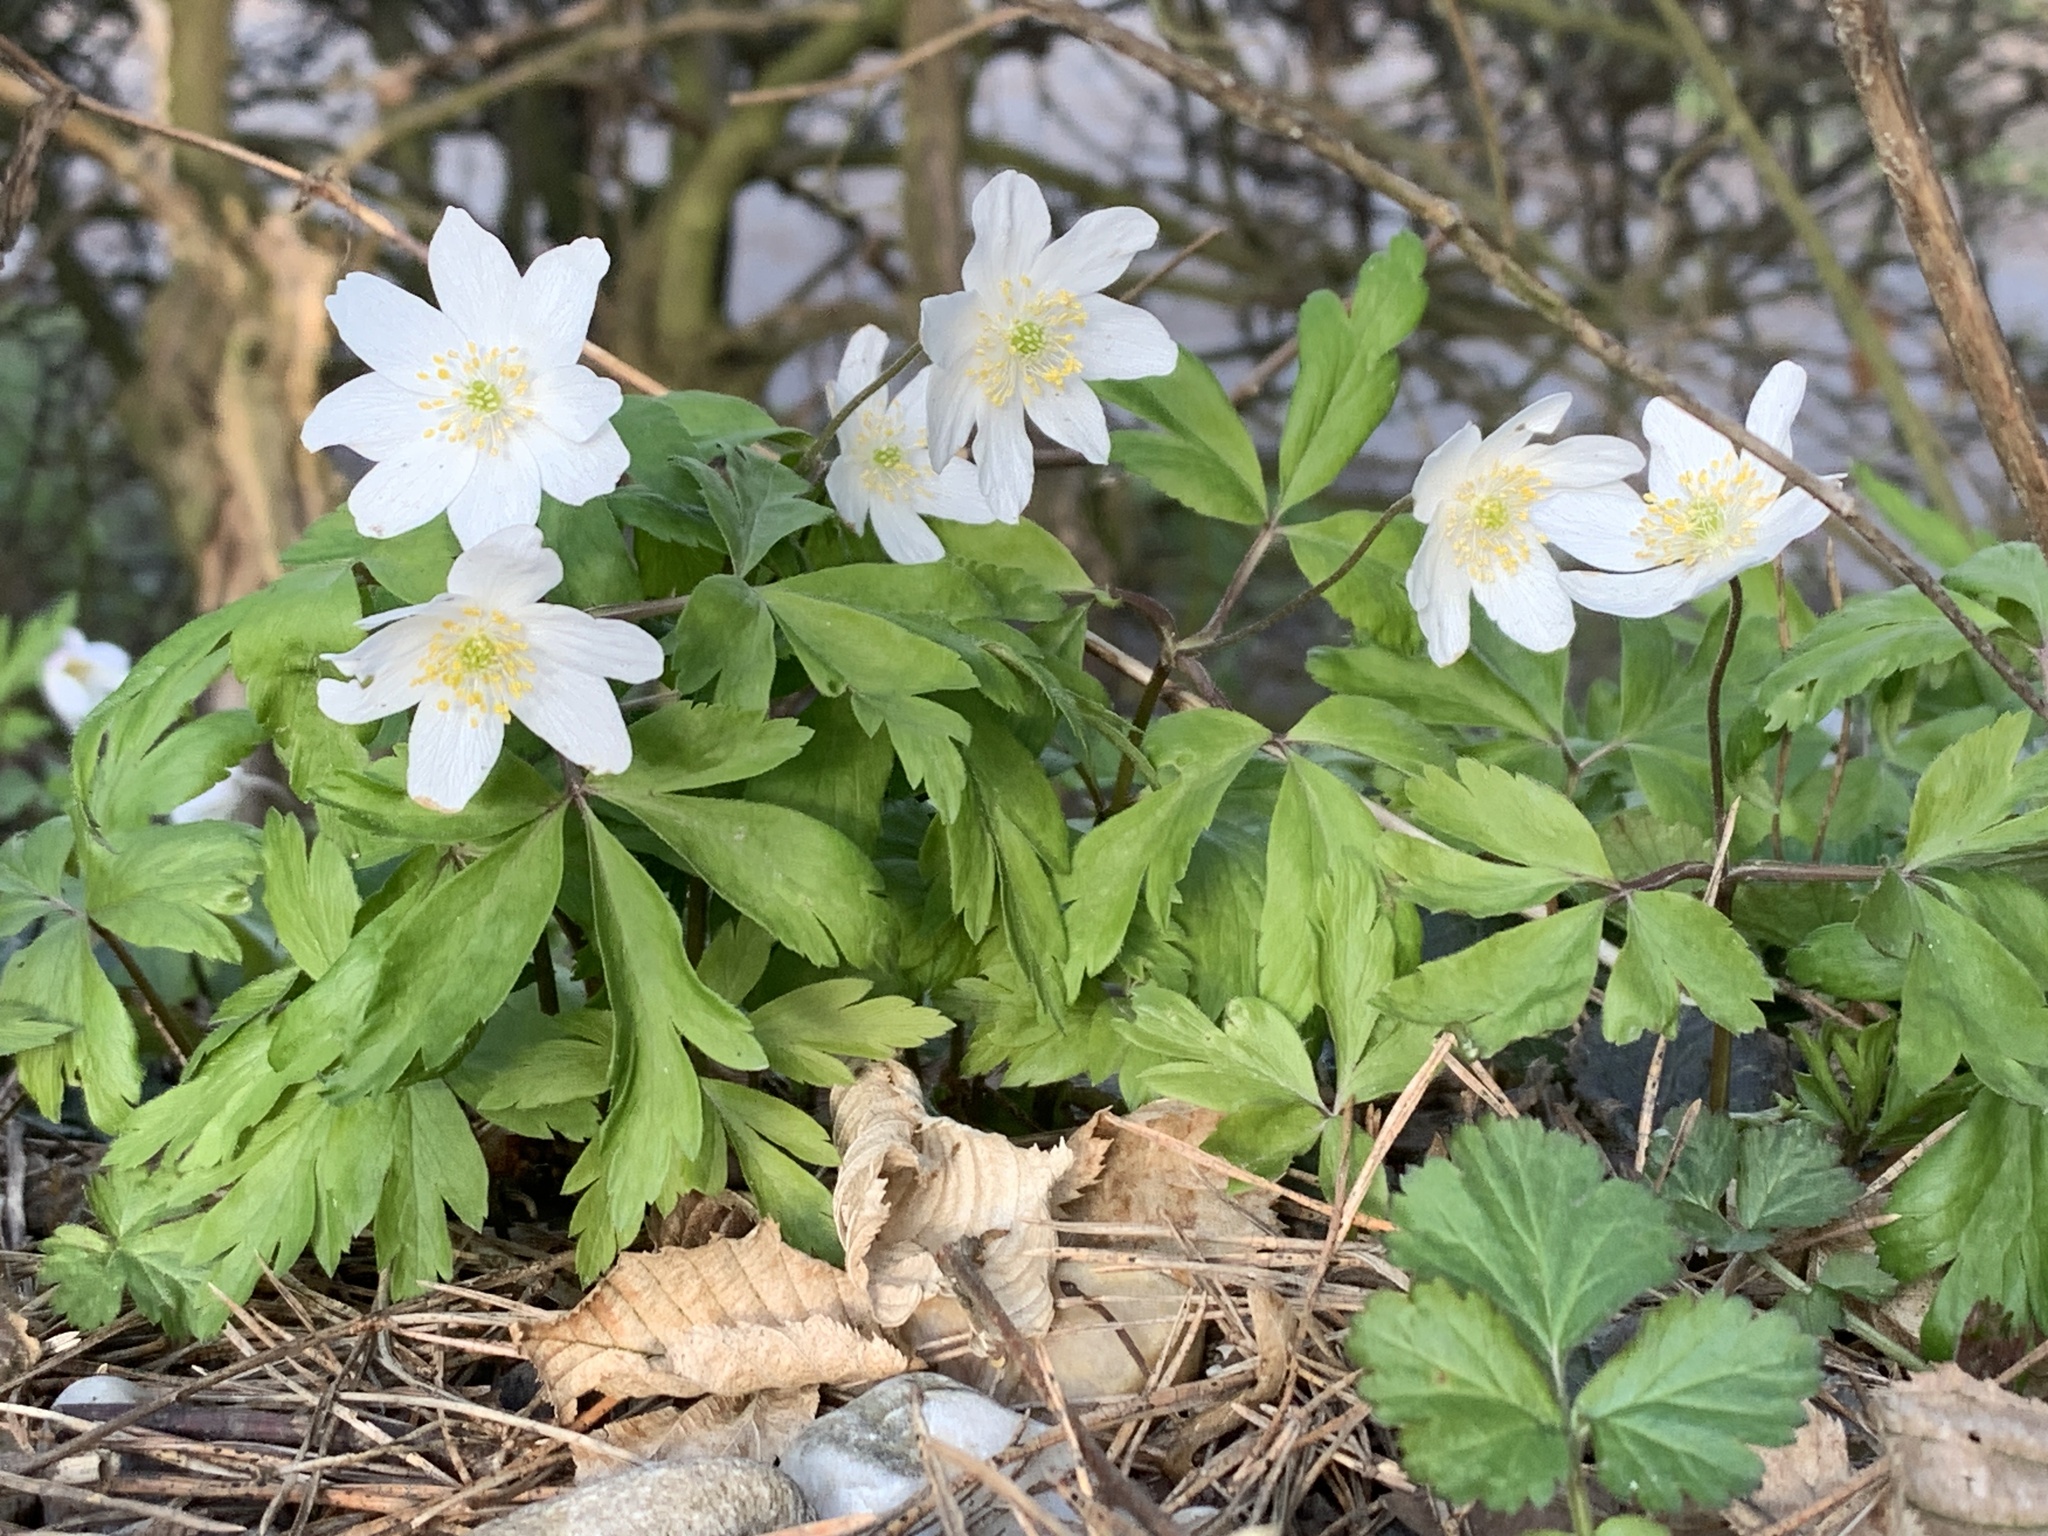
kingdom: Plantae
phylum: Tracheophyta
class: Magnoliopsida
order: Ranunculales
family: Ranunculaceae
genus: Anemone
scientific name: Anemone nemorosa
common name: Wood anemone
